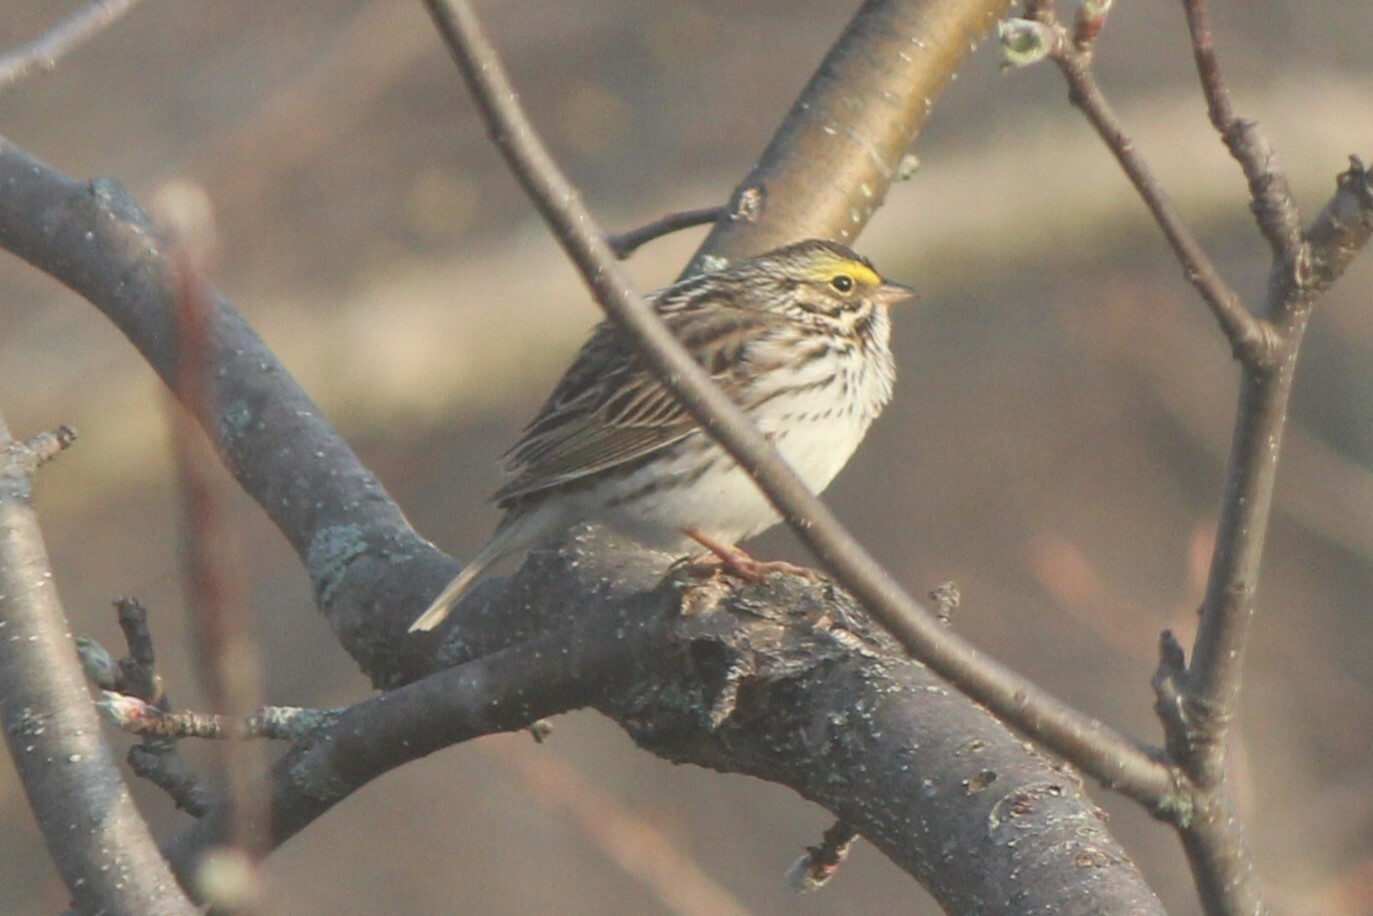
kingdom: Animalia
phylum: Chordata
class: Aves
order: Passeriformes
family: Passerellidae
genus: Passerculus
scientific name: Passerculus sandwichensis
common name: Savannah sparrow
